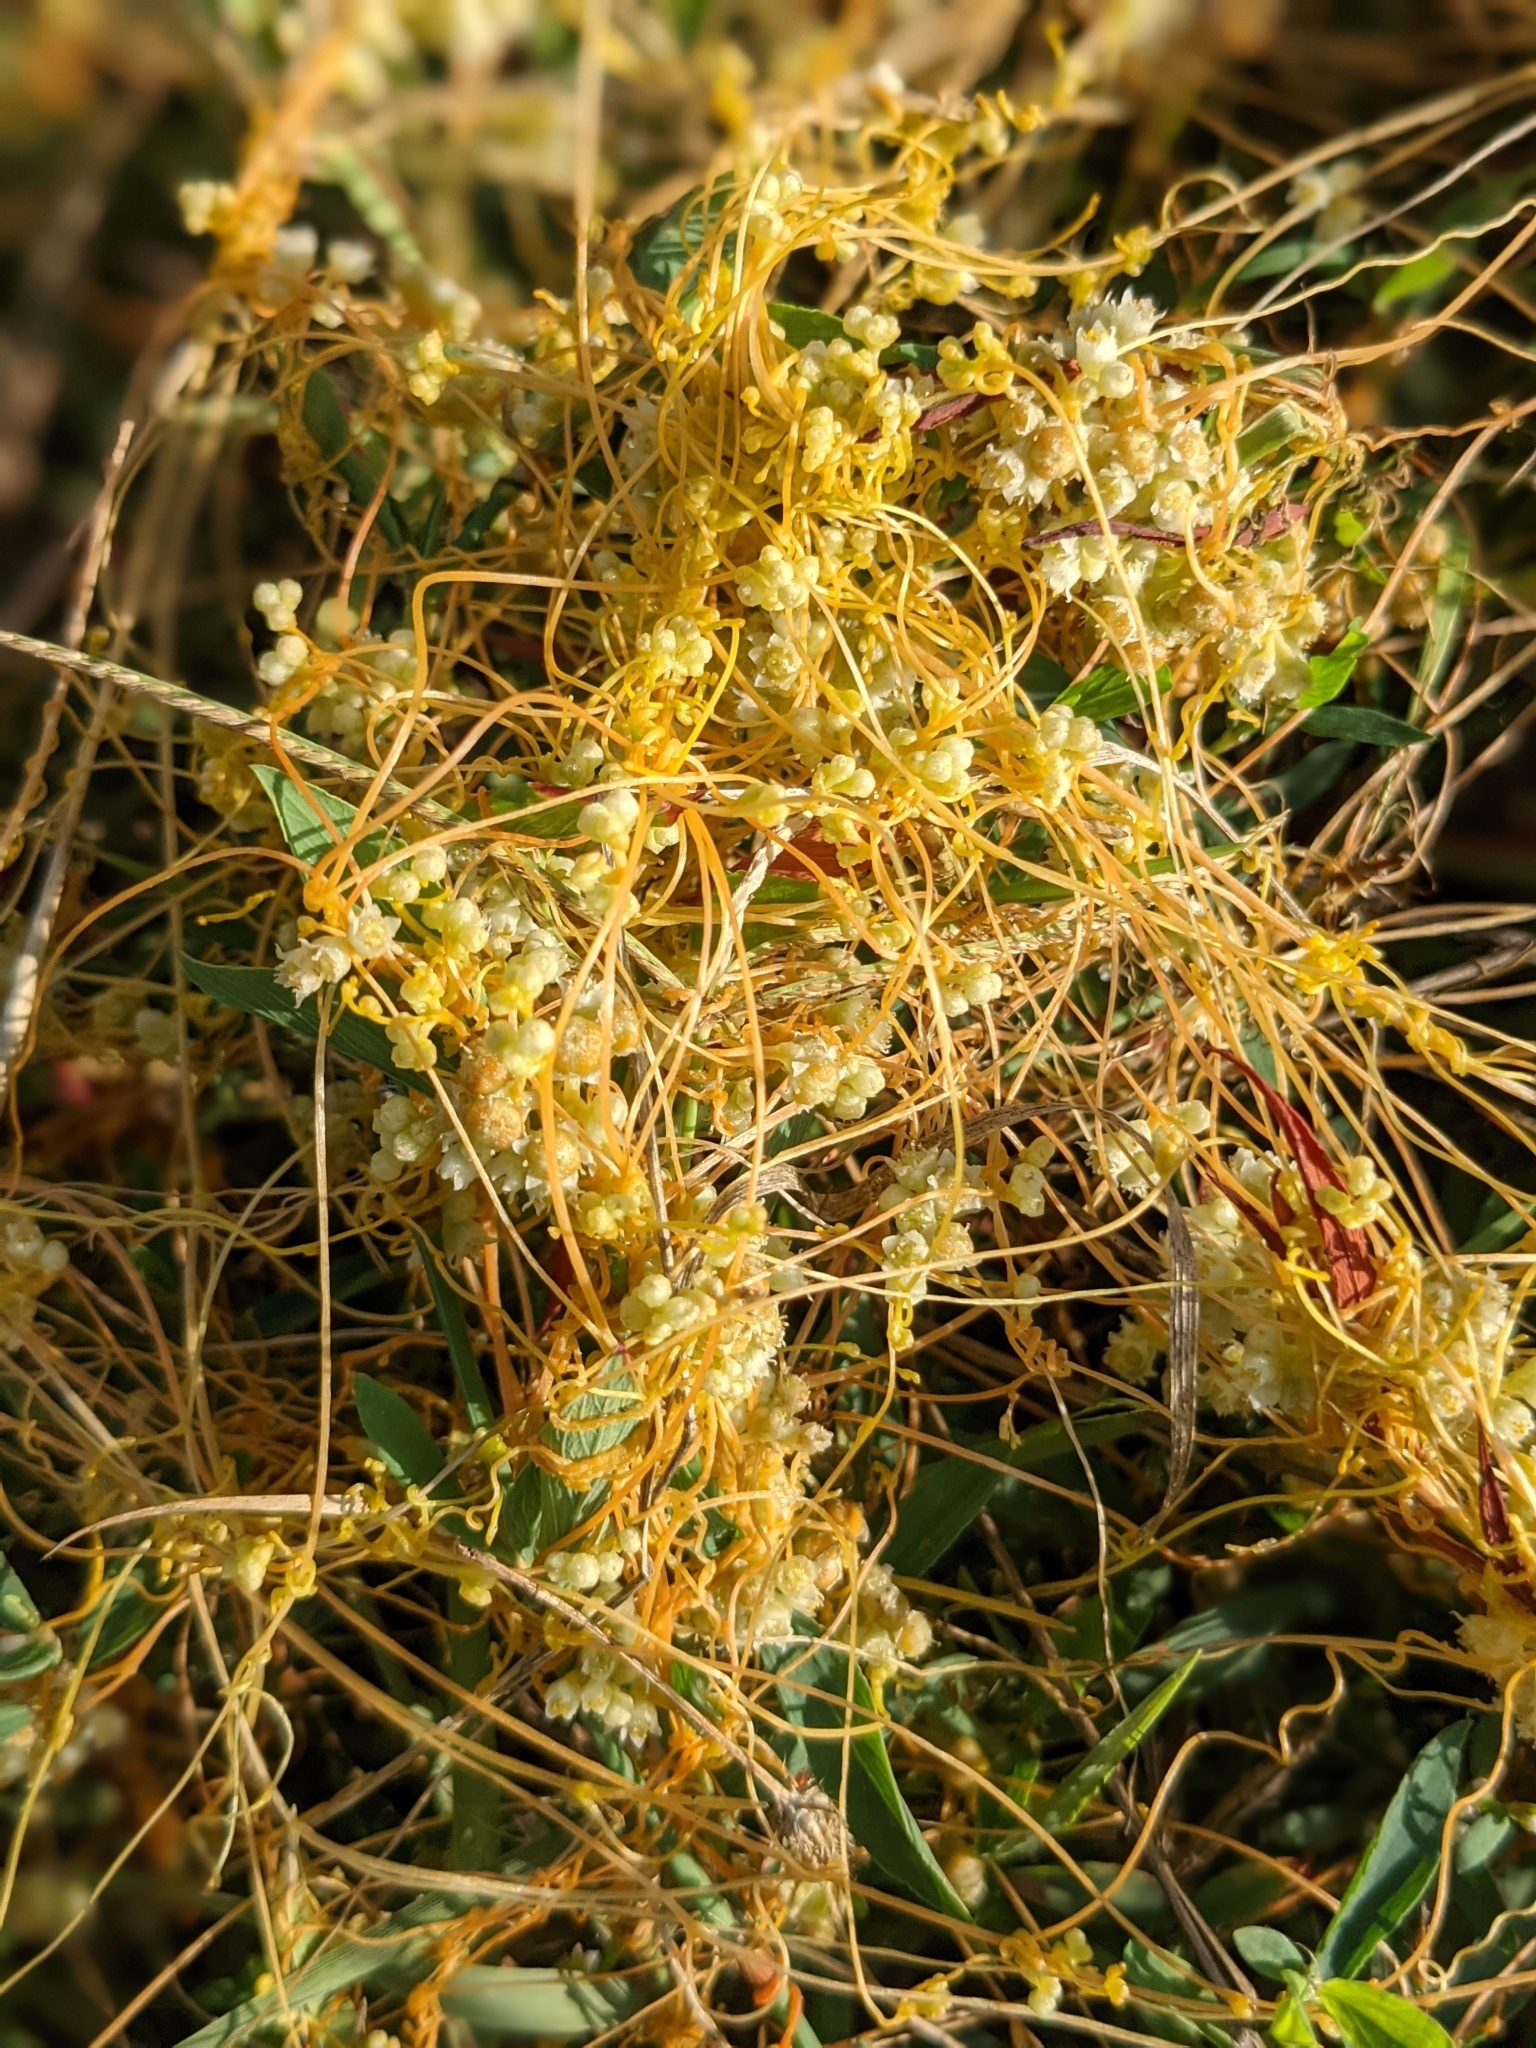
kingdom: Plantae
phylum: Tracheophyta
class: Magnoliopsida
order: Solanales
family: Convolvulaceae
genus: Cuscuta
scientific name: Cuscuta campestris
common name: Yellow dodder
